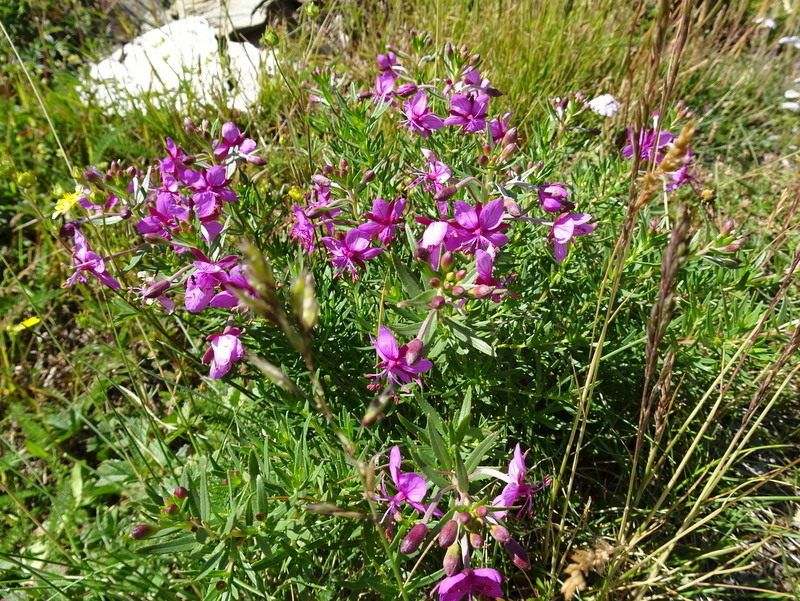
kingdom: Plantae
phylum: Tracheophyta
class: Magnoliopsida
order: Myrtales
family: Onagraceae
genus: Chamaenerion
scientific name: Chamaenerion fleischeri
